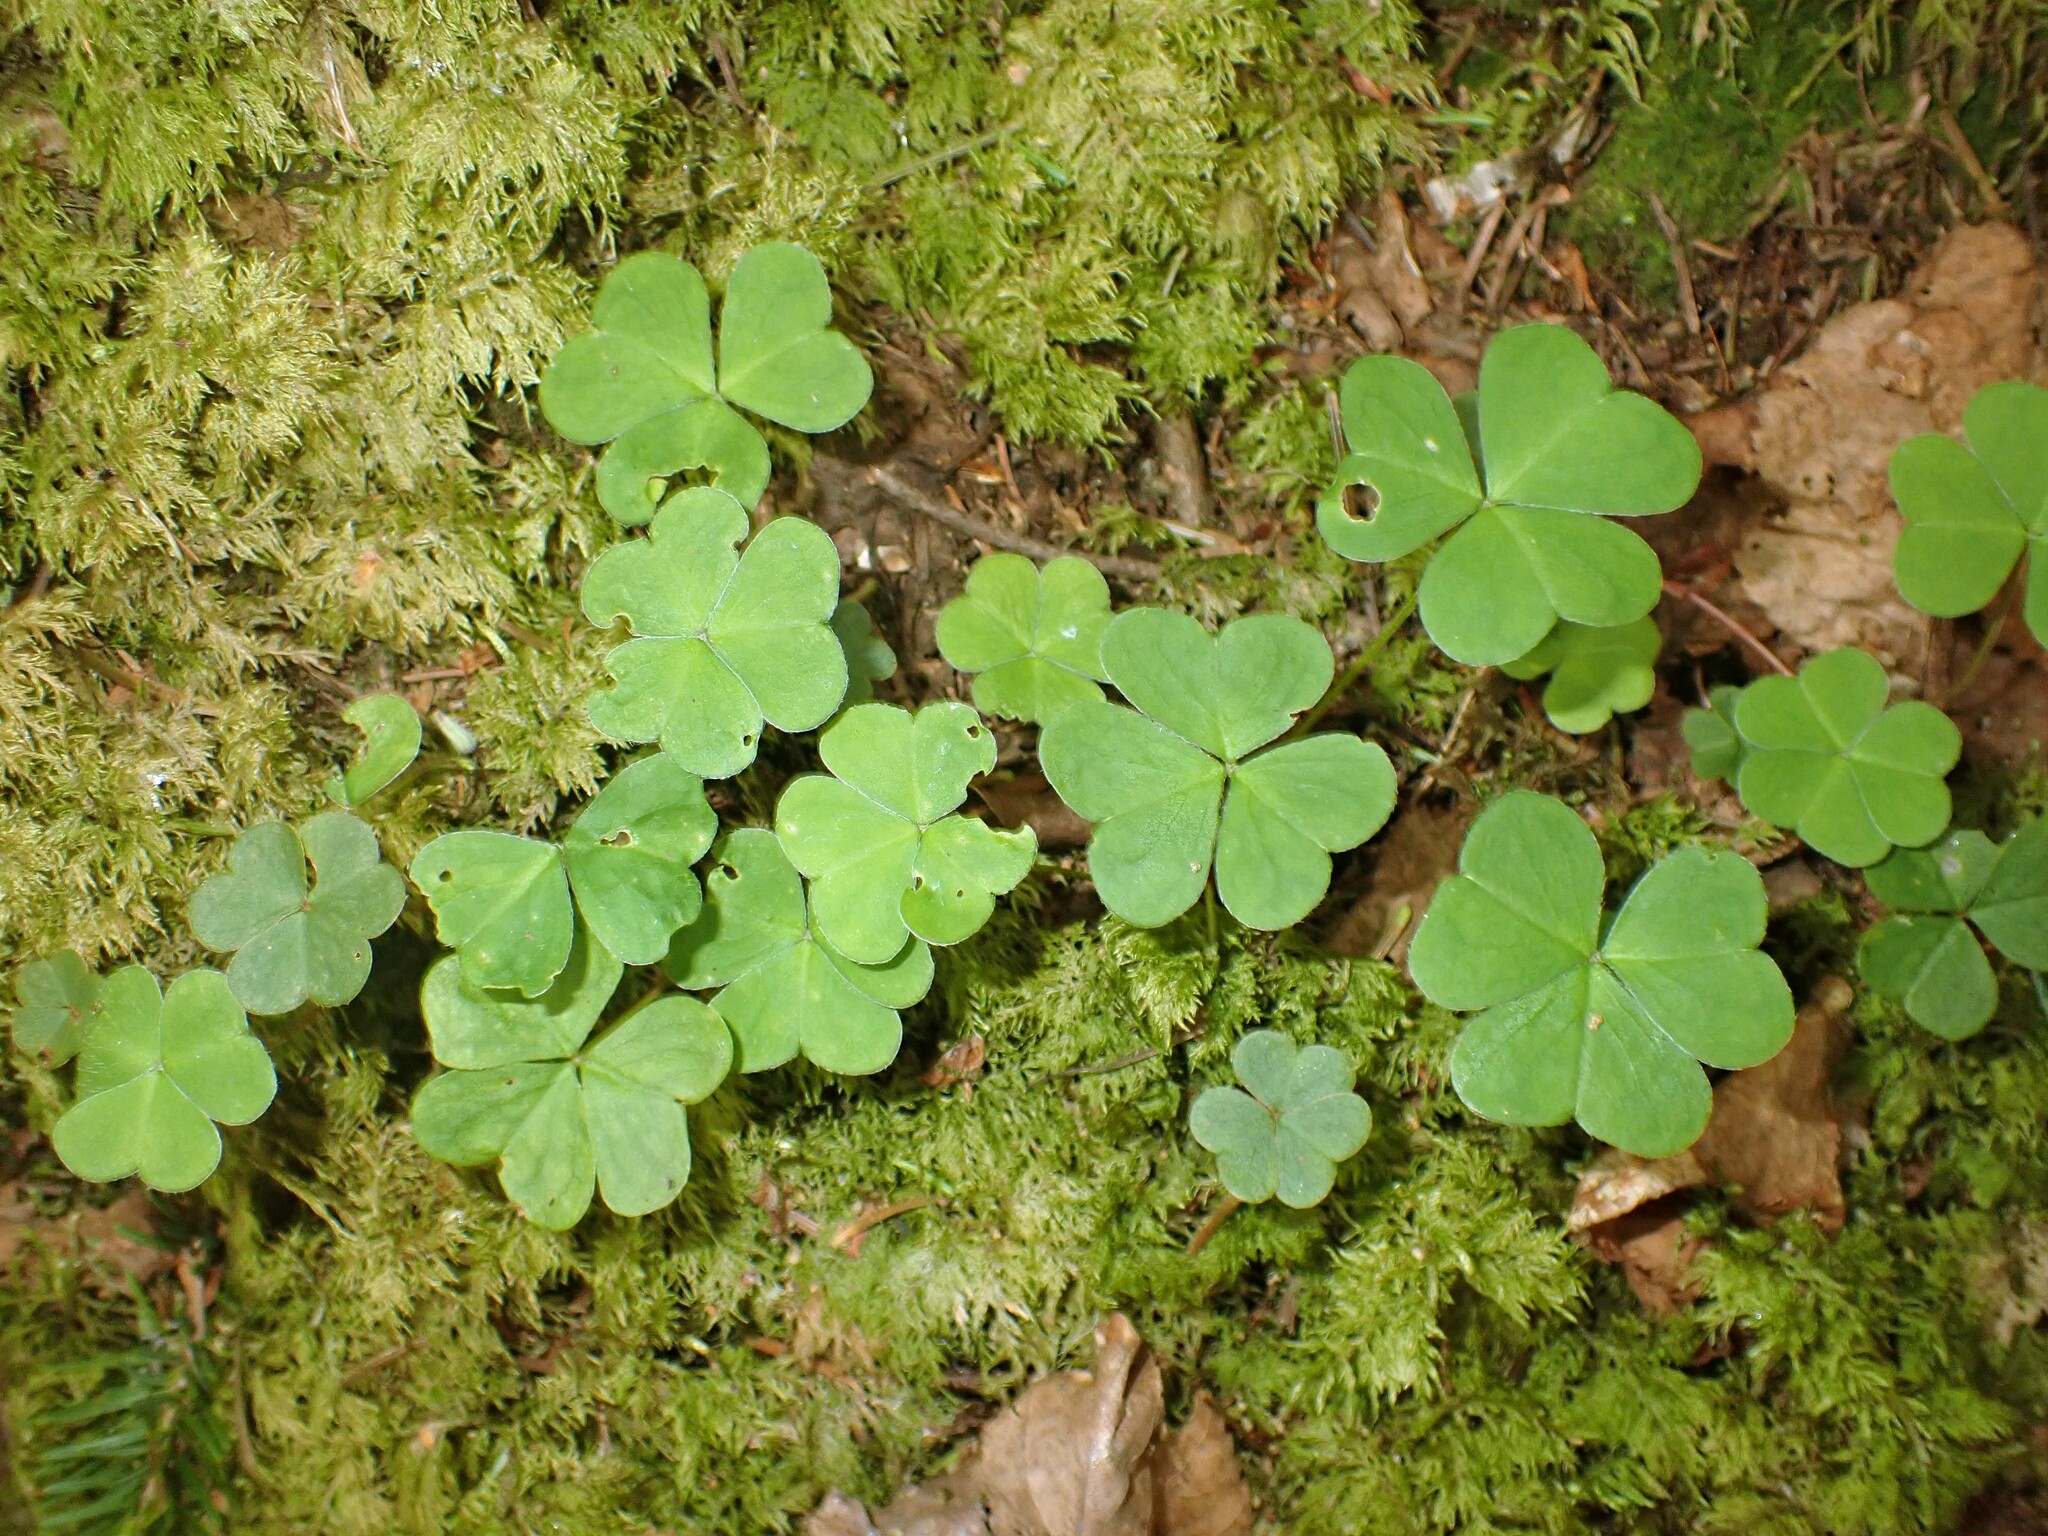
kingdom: Plantae
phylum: Tracheophyta
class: Magnoliopsida
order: Oxalidales
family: Oxalidaceae
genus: Oxalis
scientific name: Oxalis montana
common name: American wood-sorrel
